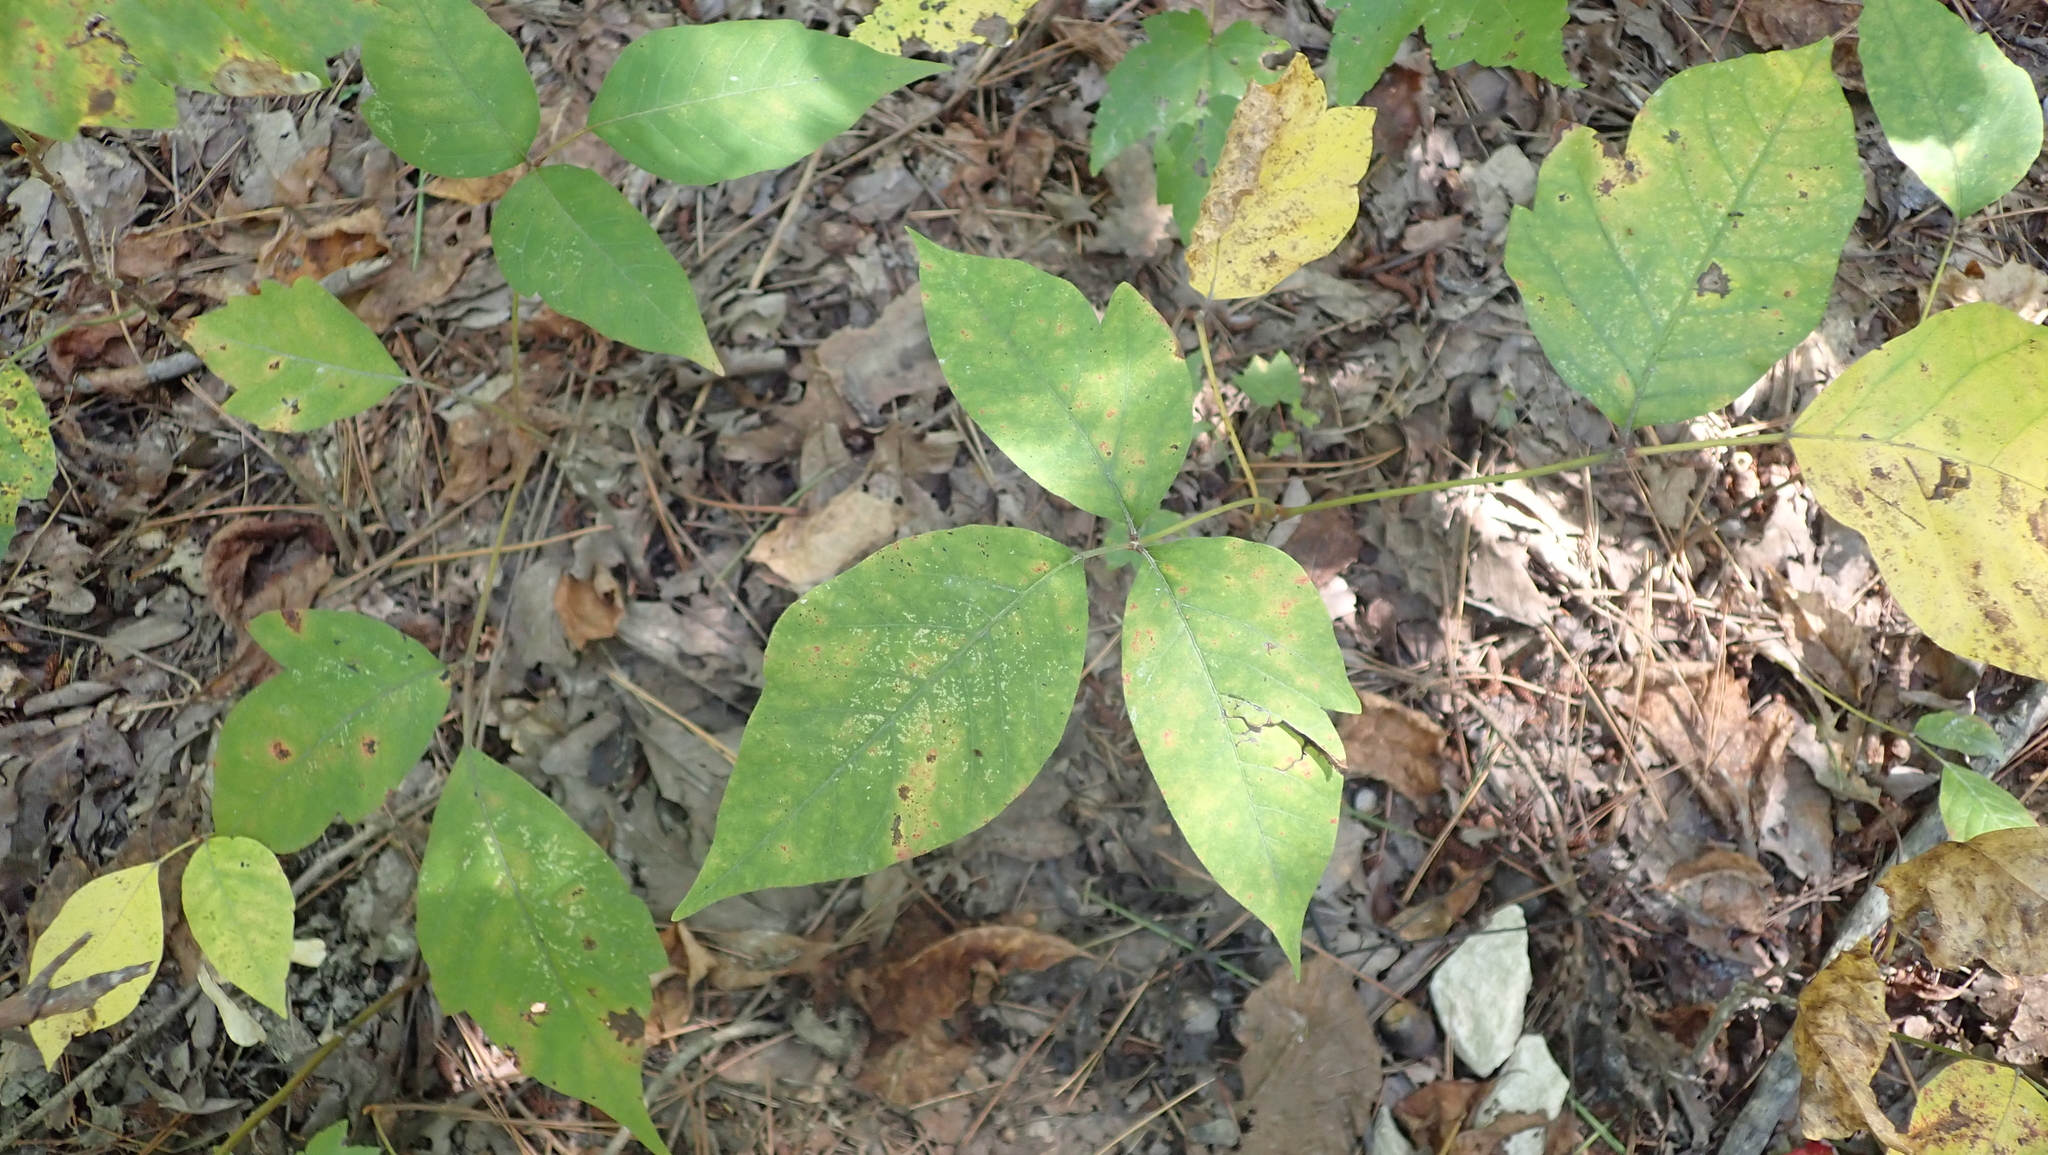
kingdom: Plantae
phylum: Tracheophyta
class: Magnoliopsida
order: Sapindales
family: Anacardiaceae
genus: Toxicodendron
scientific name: Toxicodendron radicans
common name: Poison ivy
